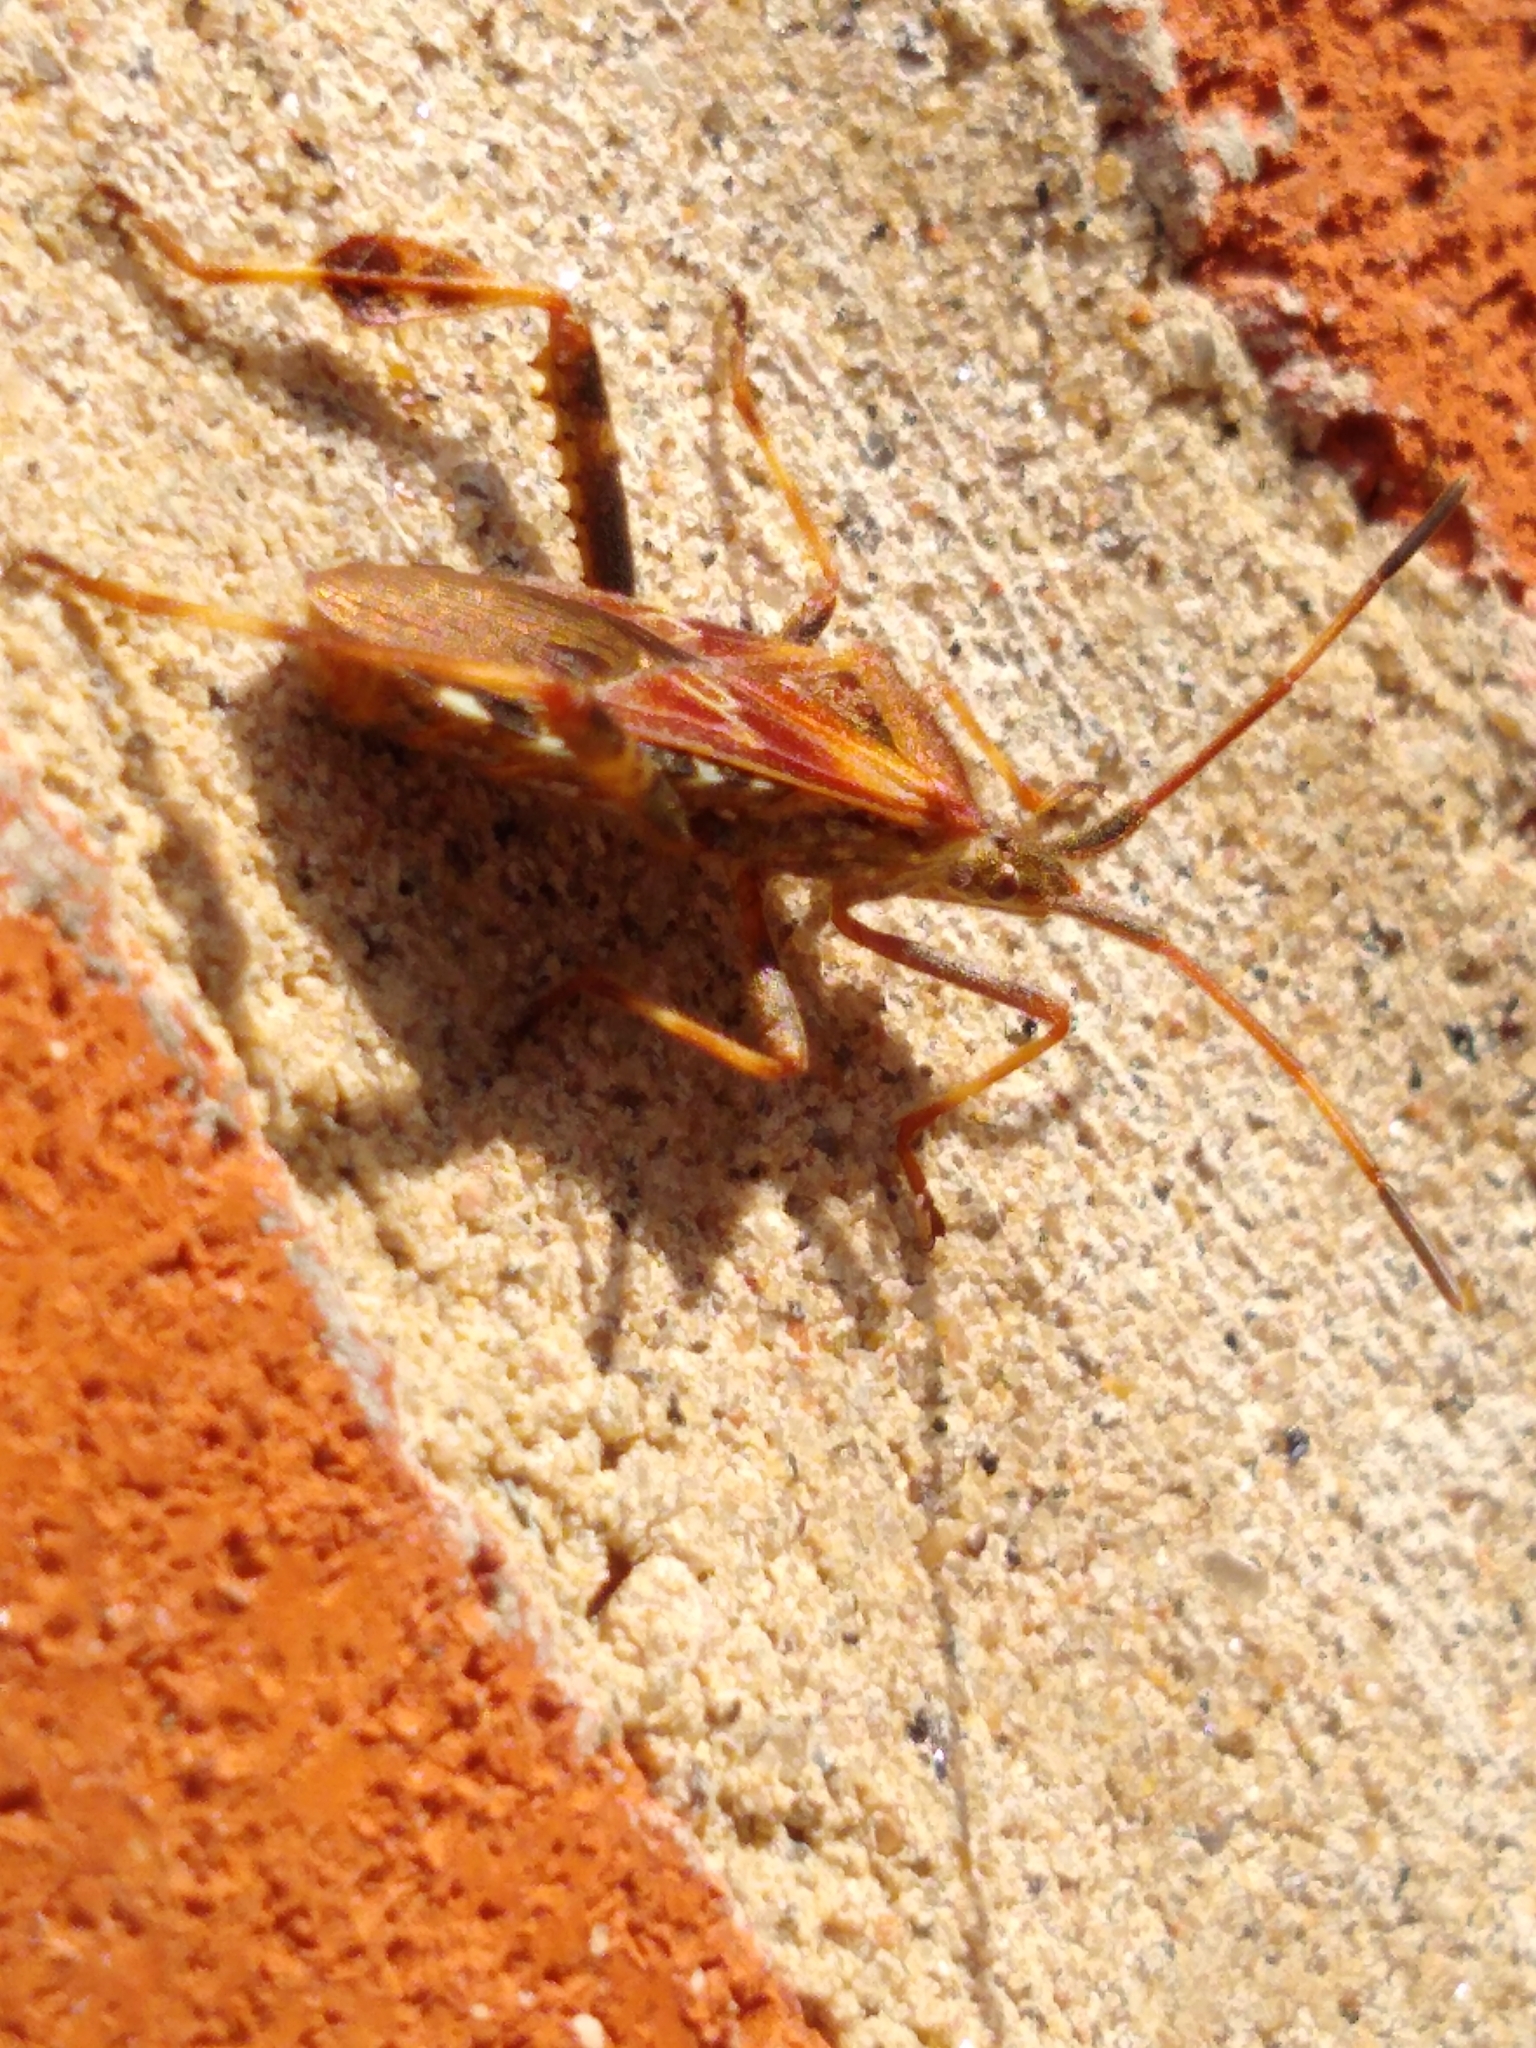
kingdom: Animalia
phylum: Arthropoda
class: Insecta
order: Hemiptera
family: Coreidae
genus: Leptoglossus
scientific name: Leptoglossus occidentalis
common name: Western conifer-seed bug
